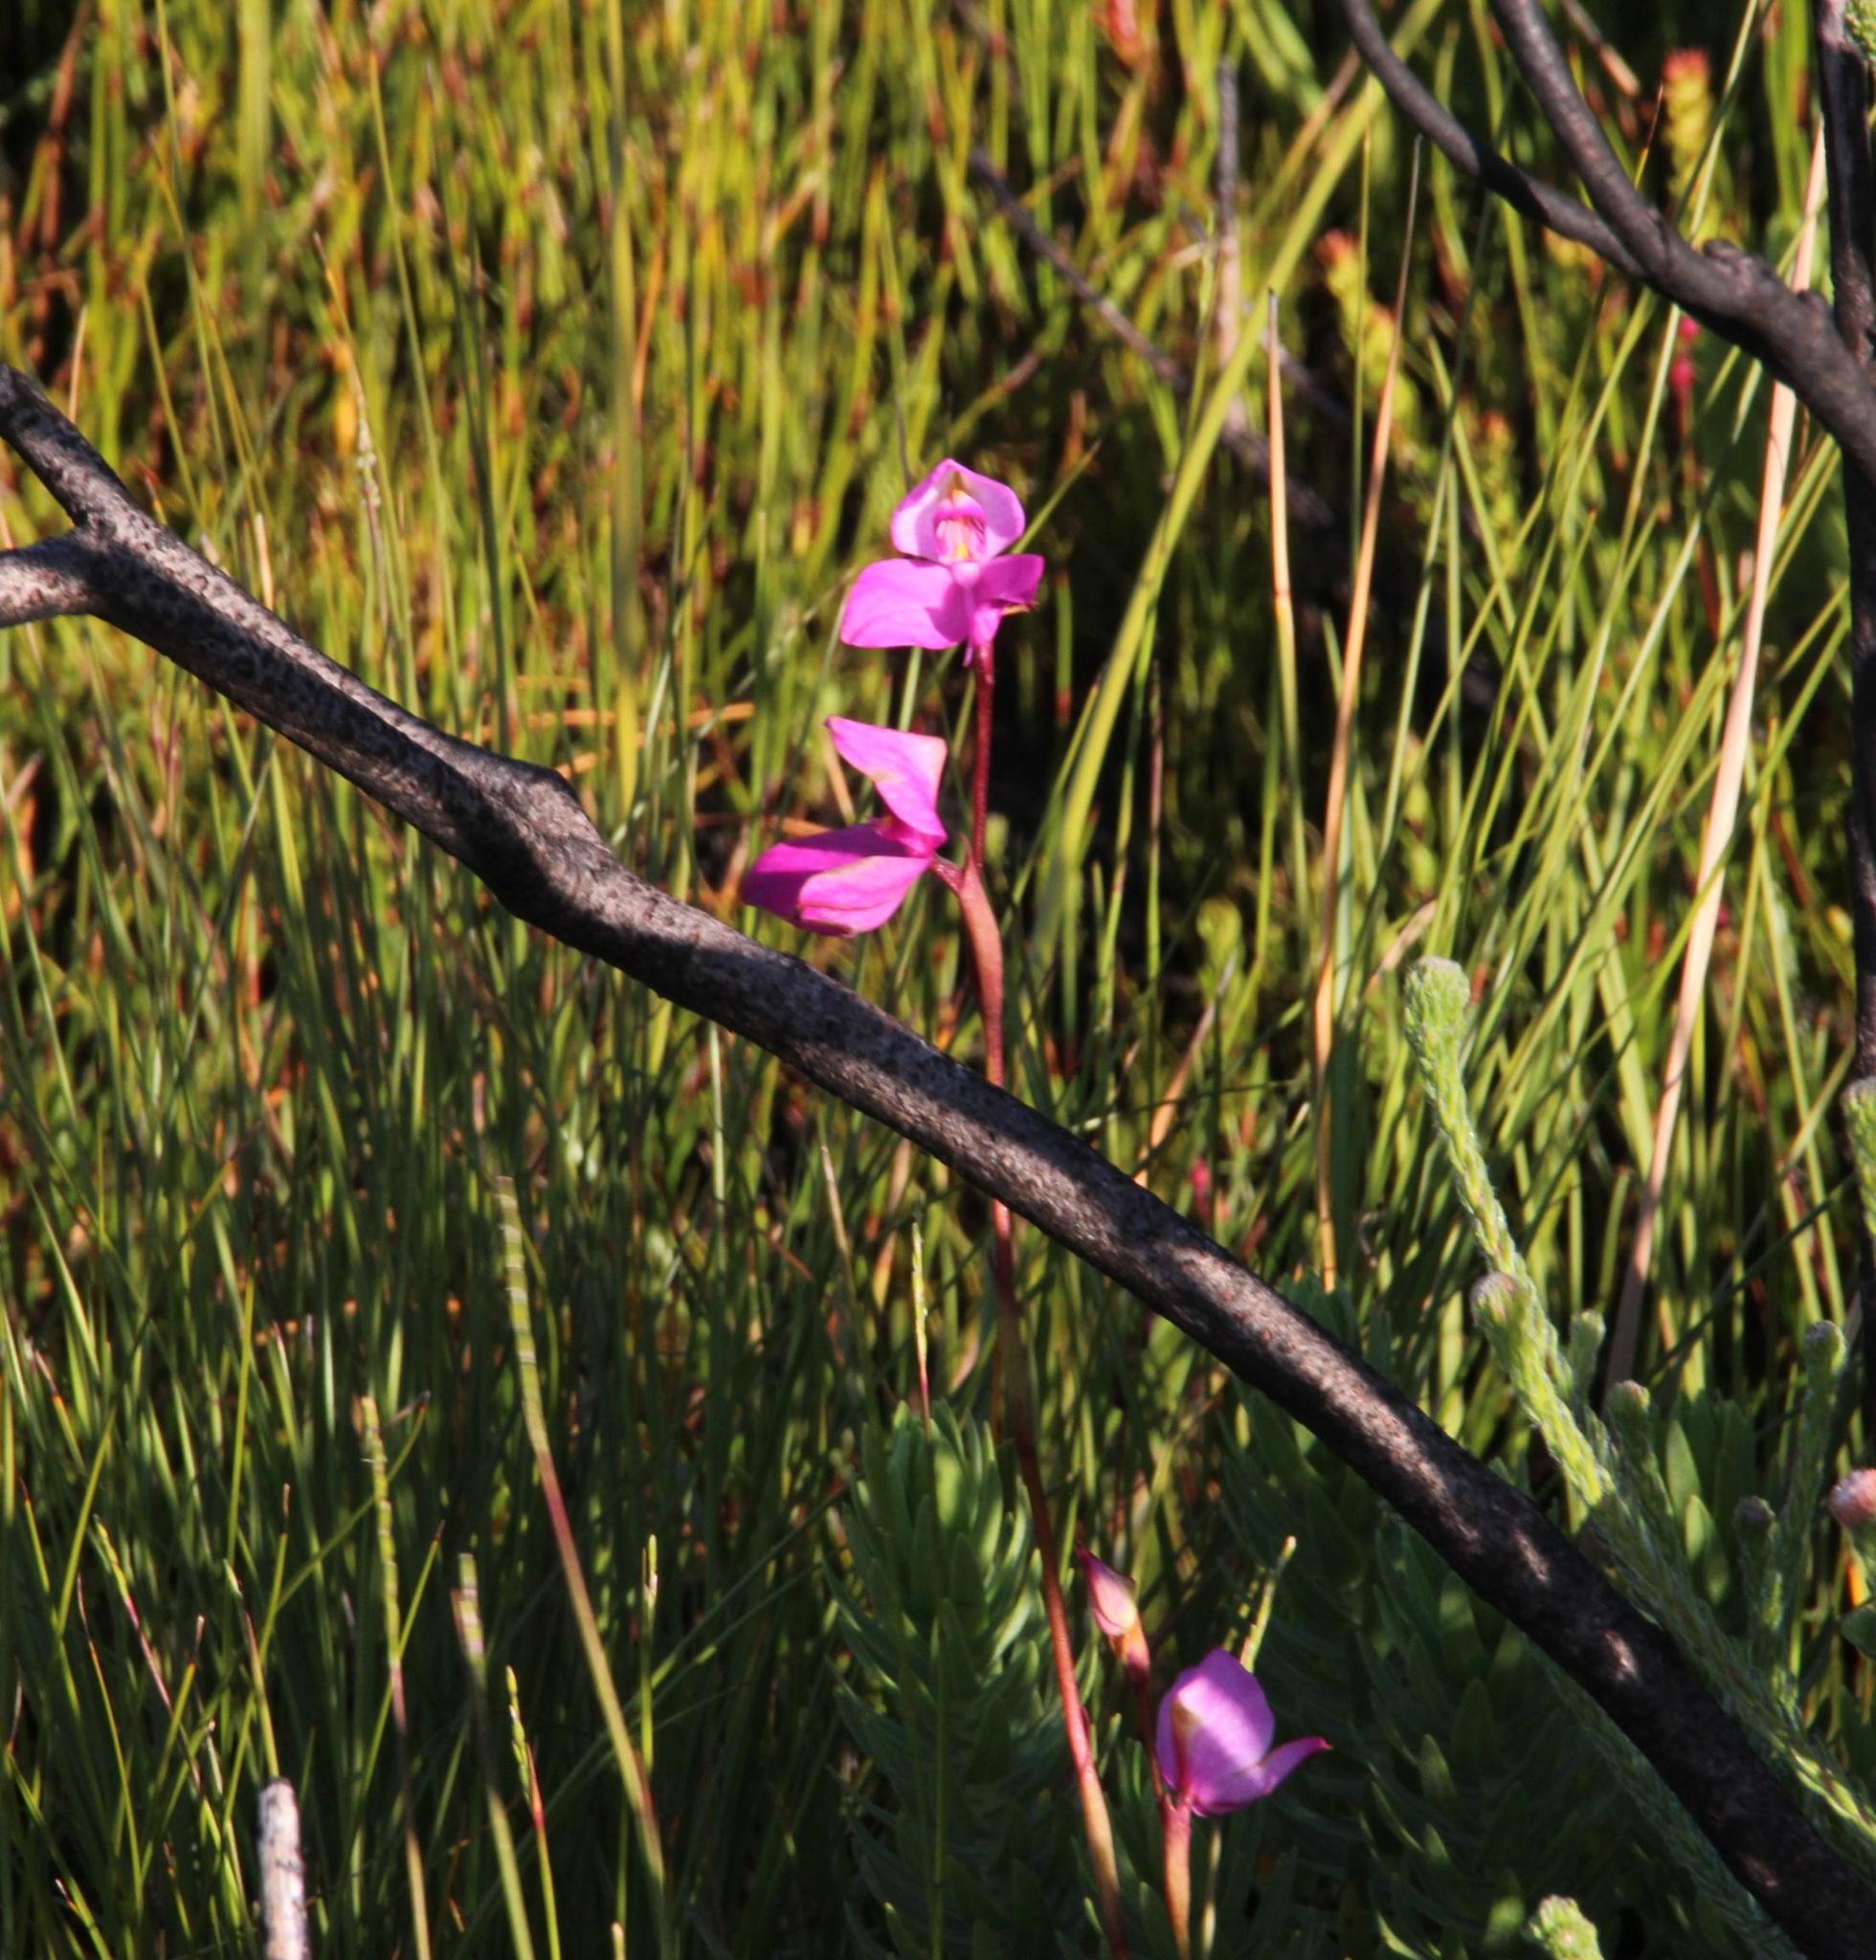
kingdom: Plantae
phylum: Tracheophyta
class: Liliopsida
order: Asparagales
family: Orchidaceae
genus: Disa
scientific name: Disa racemosa
